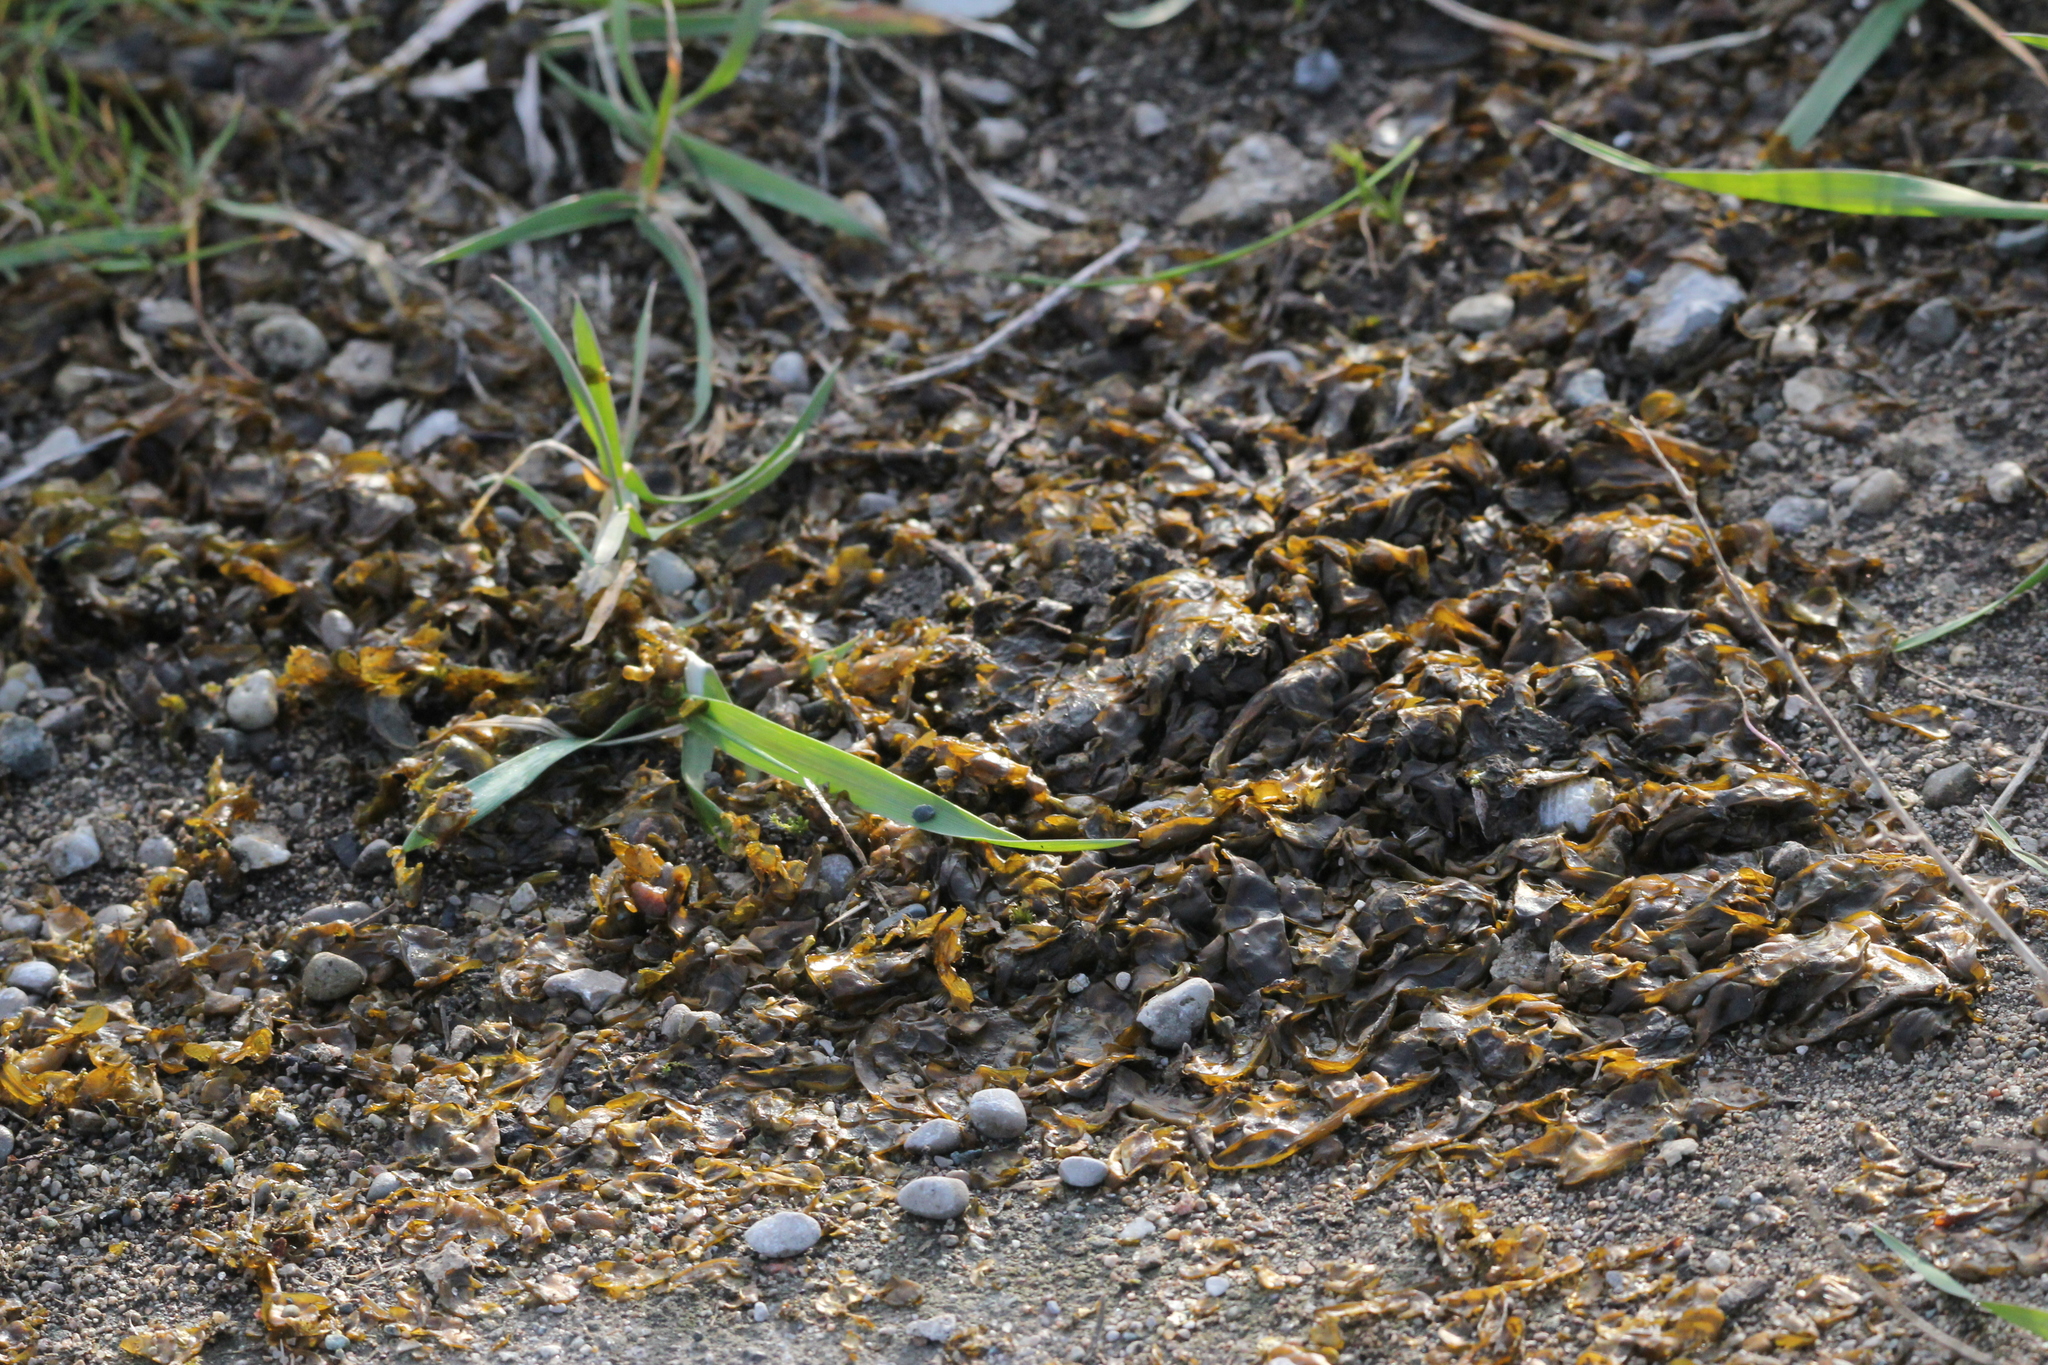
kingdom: Bacteria
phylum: Cyanobacteria
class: Cyanobacteriia
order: Cyanobacteriales
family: Nostocaceae
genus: Nostoc
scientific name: Nostoc commune
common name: Star jelly
